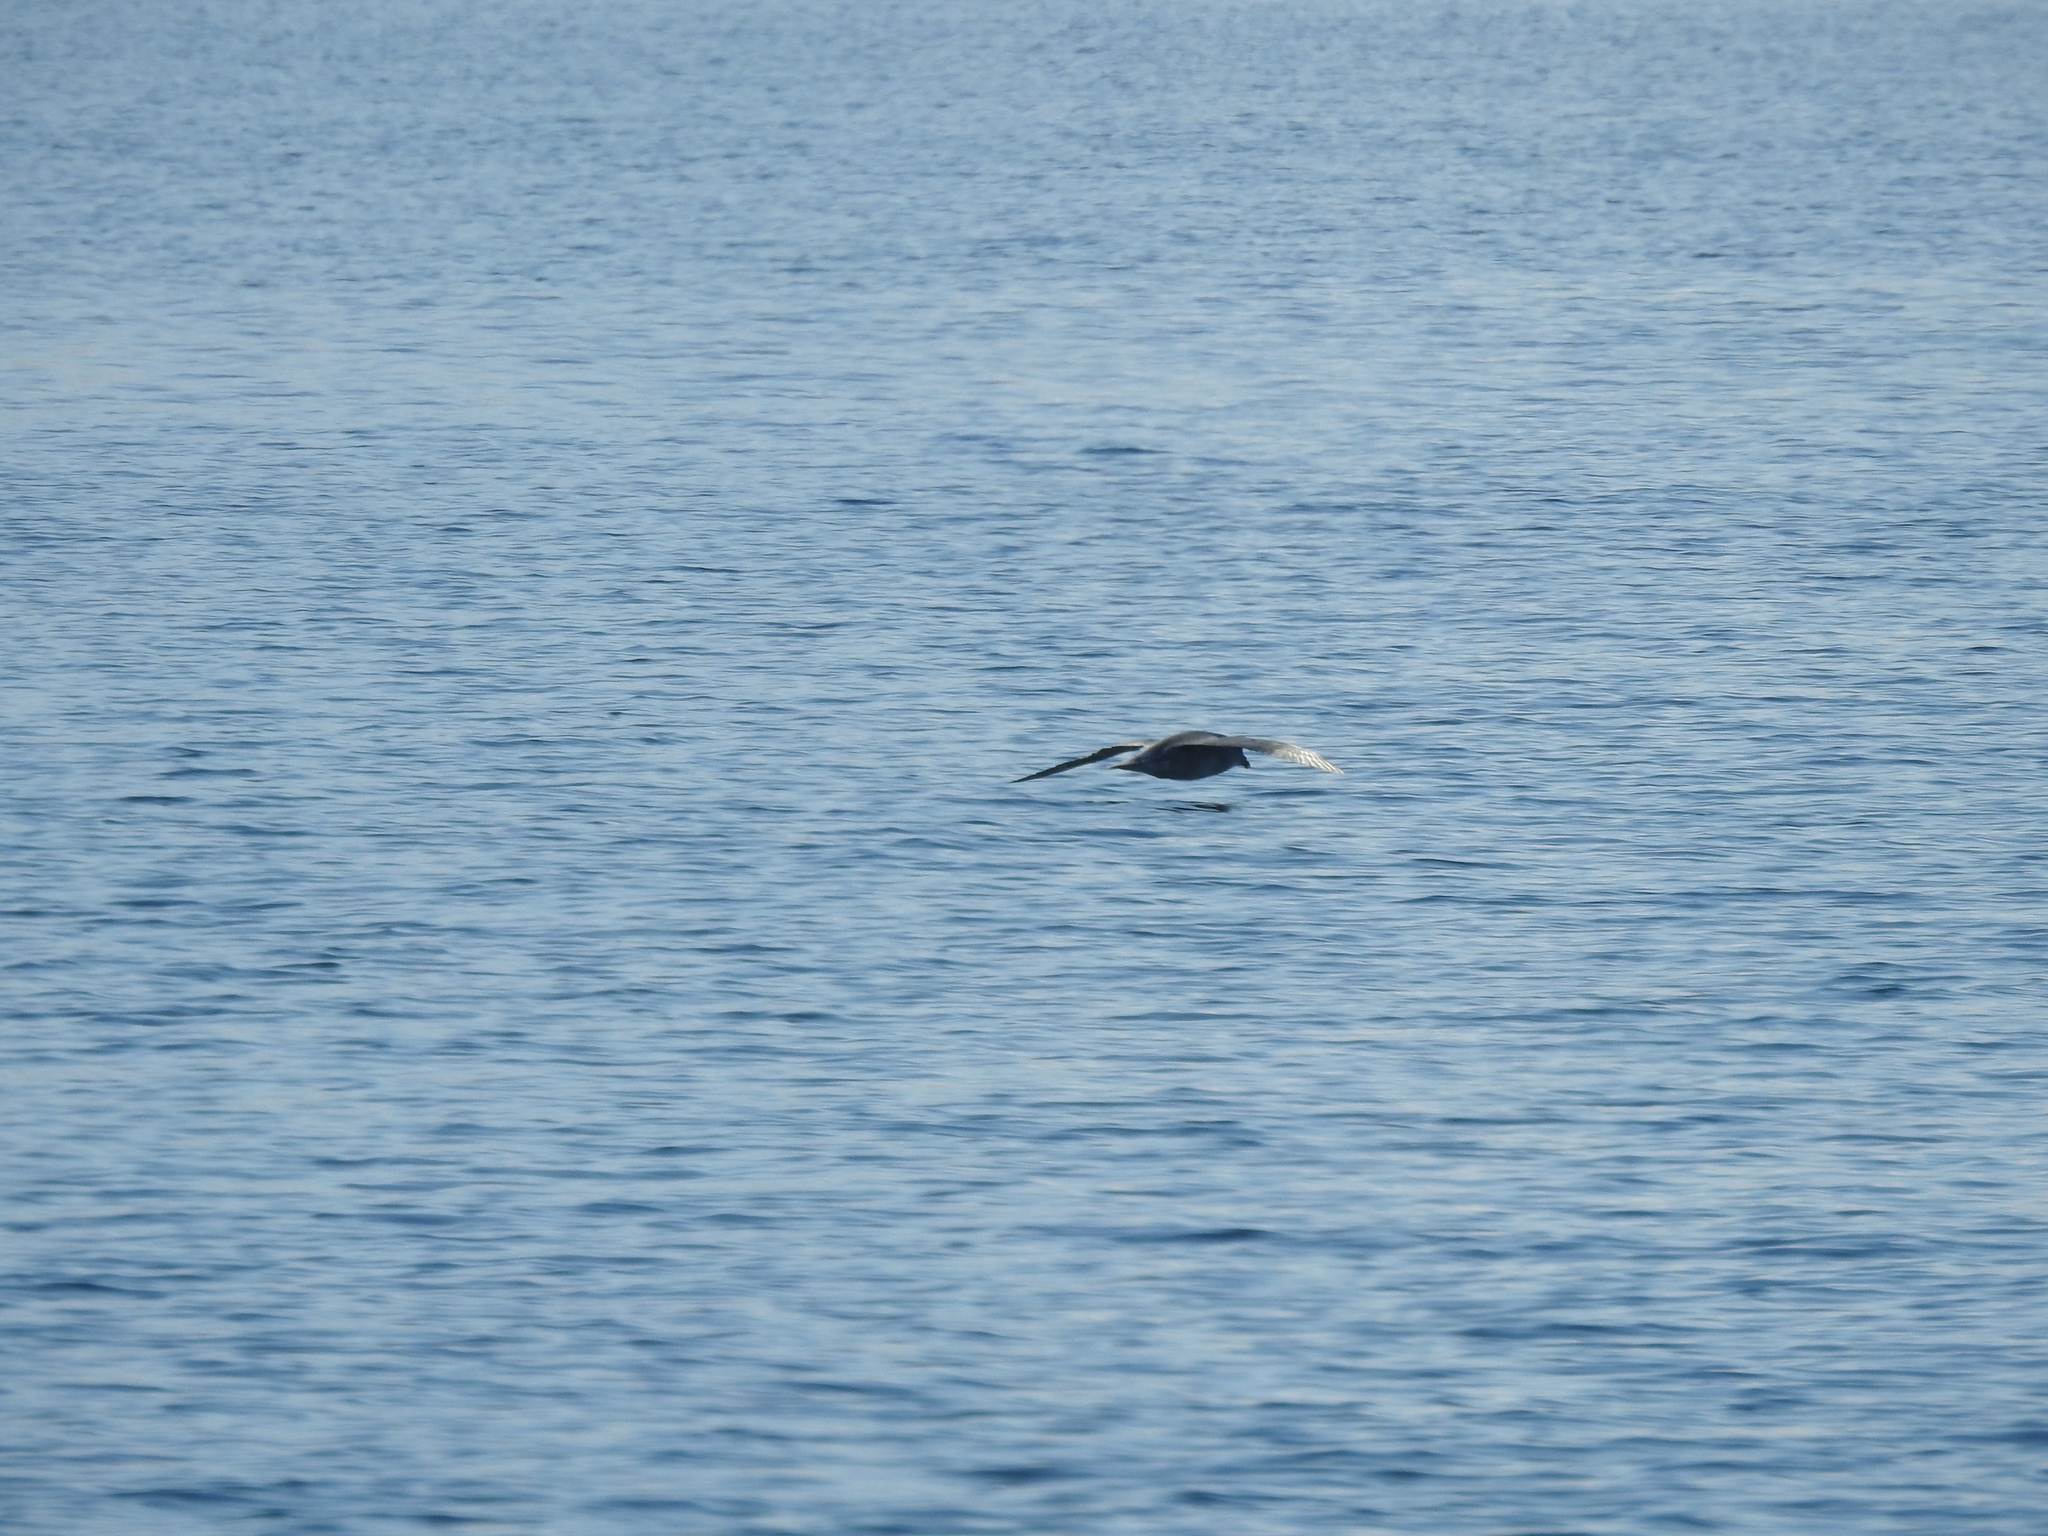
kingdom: Animalia
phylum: Chordata
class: Aves
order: Procellariiformes
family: Procellariidae
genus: Fulmarus
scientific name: Fulmarus glacialis
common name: Northern fulmar
